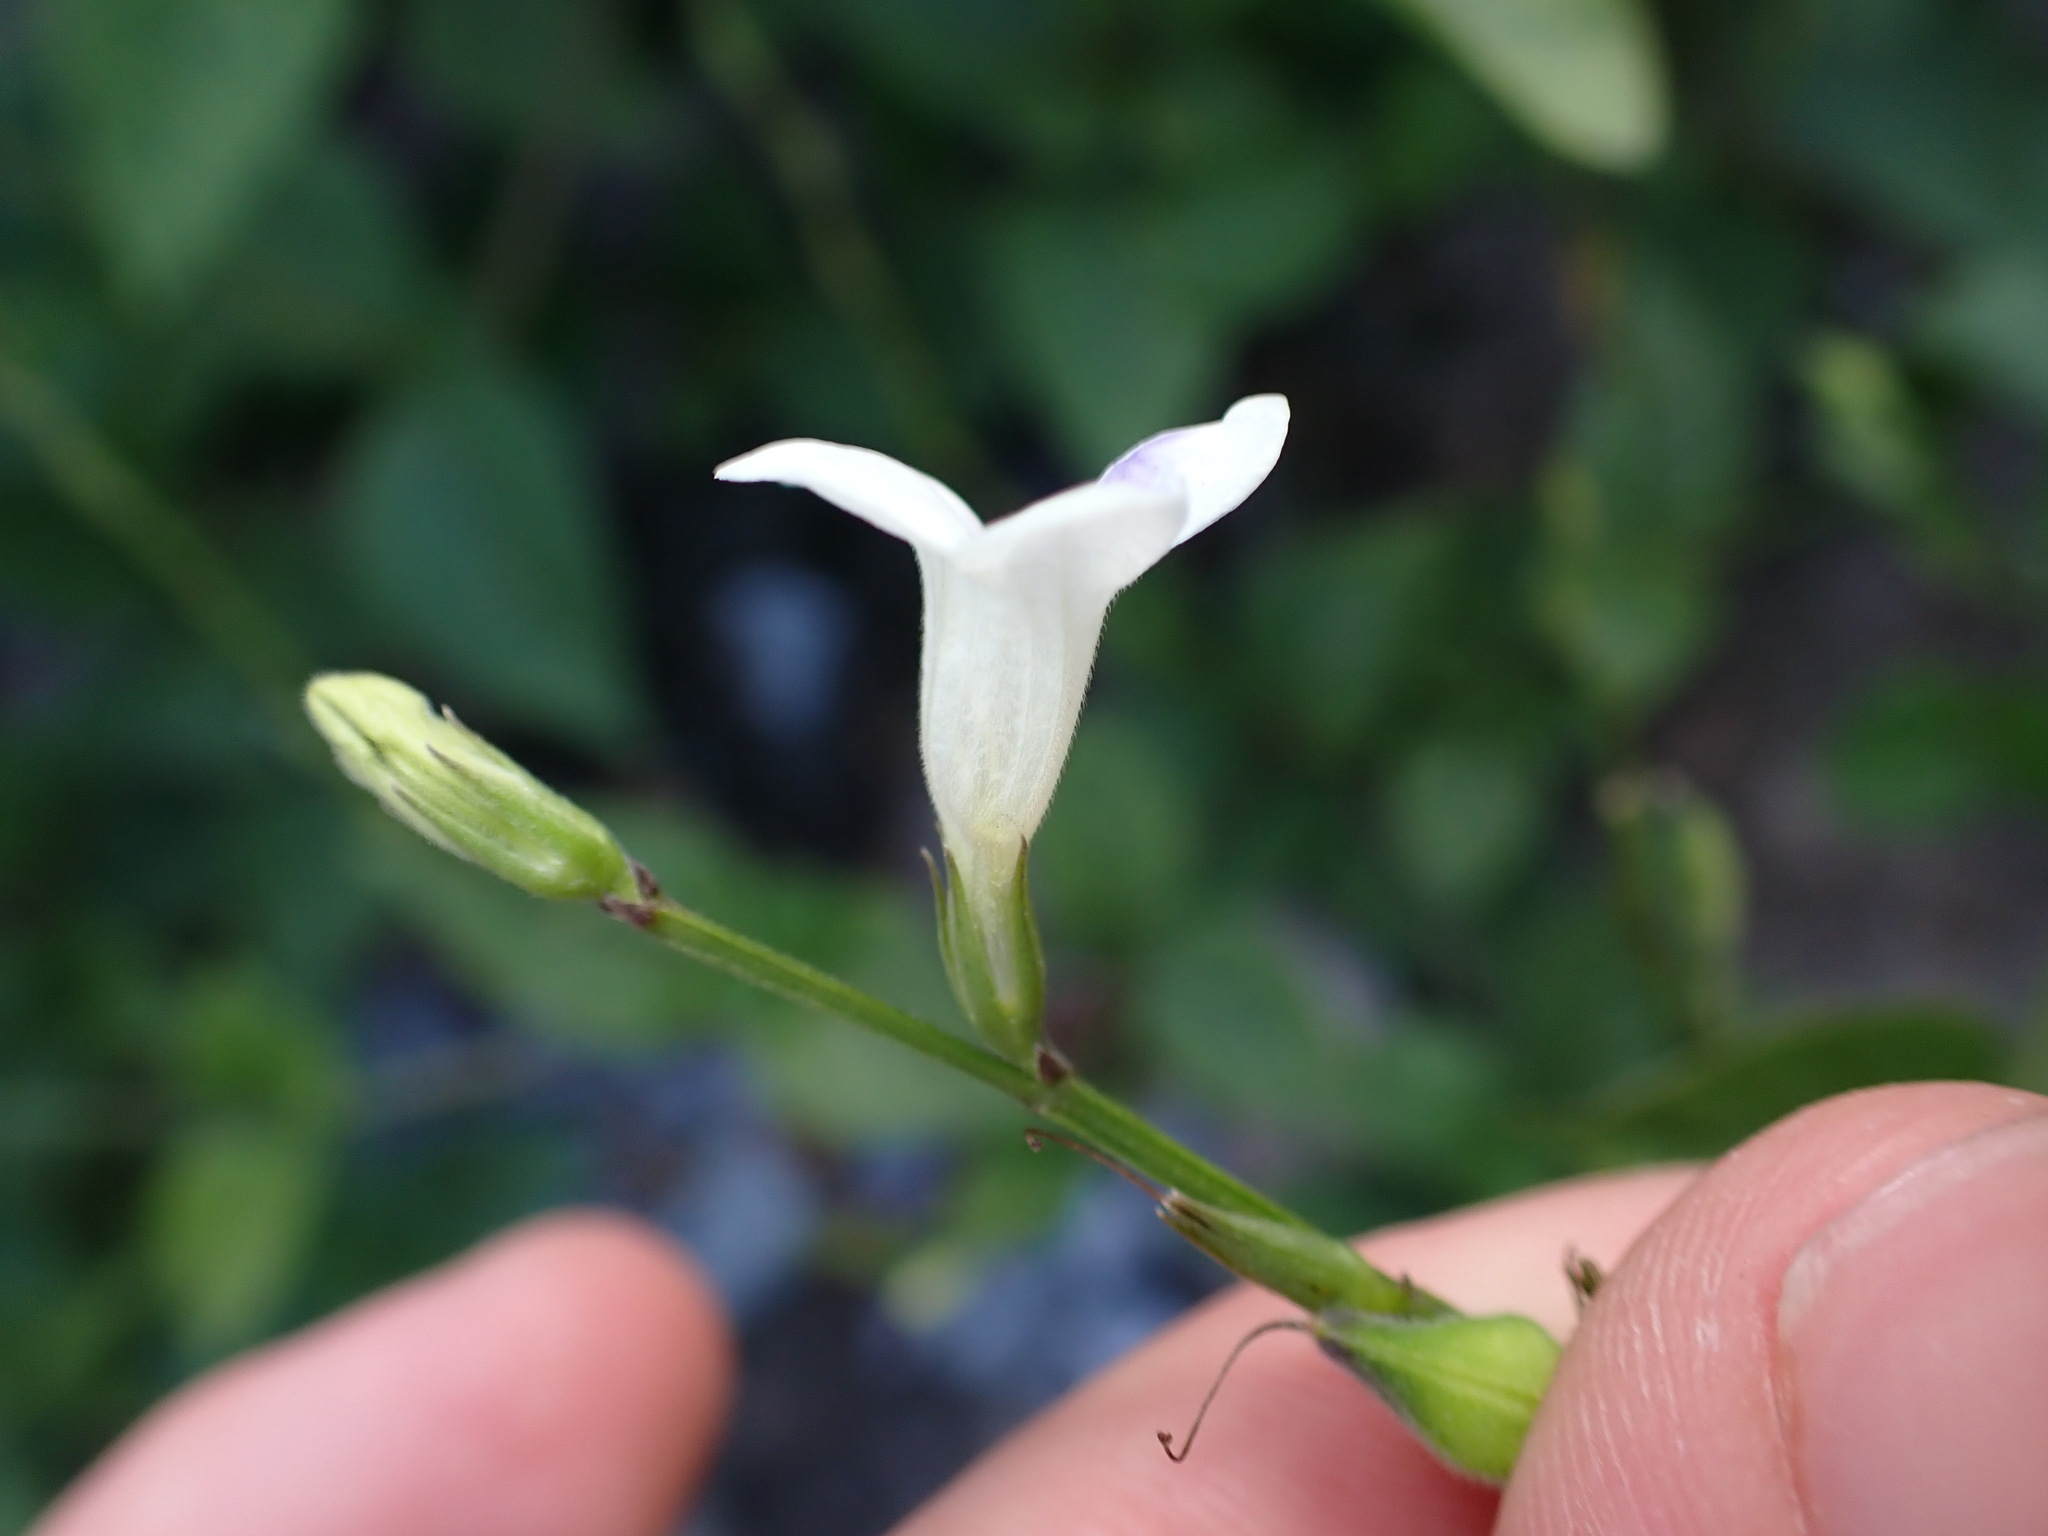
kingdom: Plantae
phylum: Tracheophyta
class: Magnoliopsida
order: Lamiales
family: Acanthaceae
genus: Asystasia
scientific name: Asystasia intrusa
